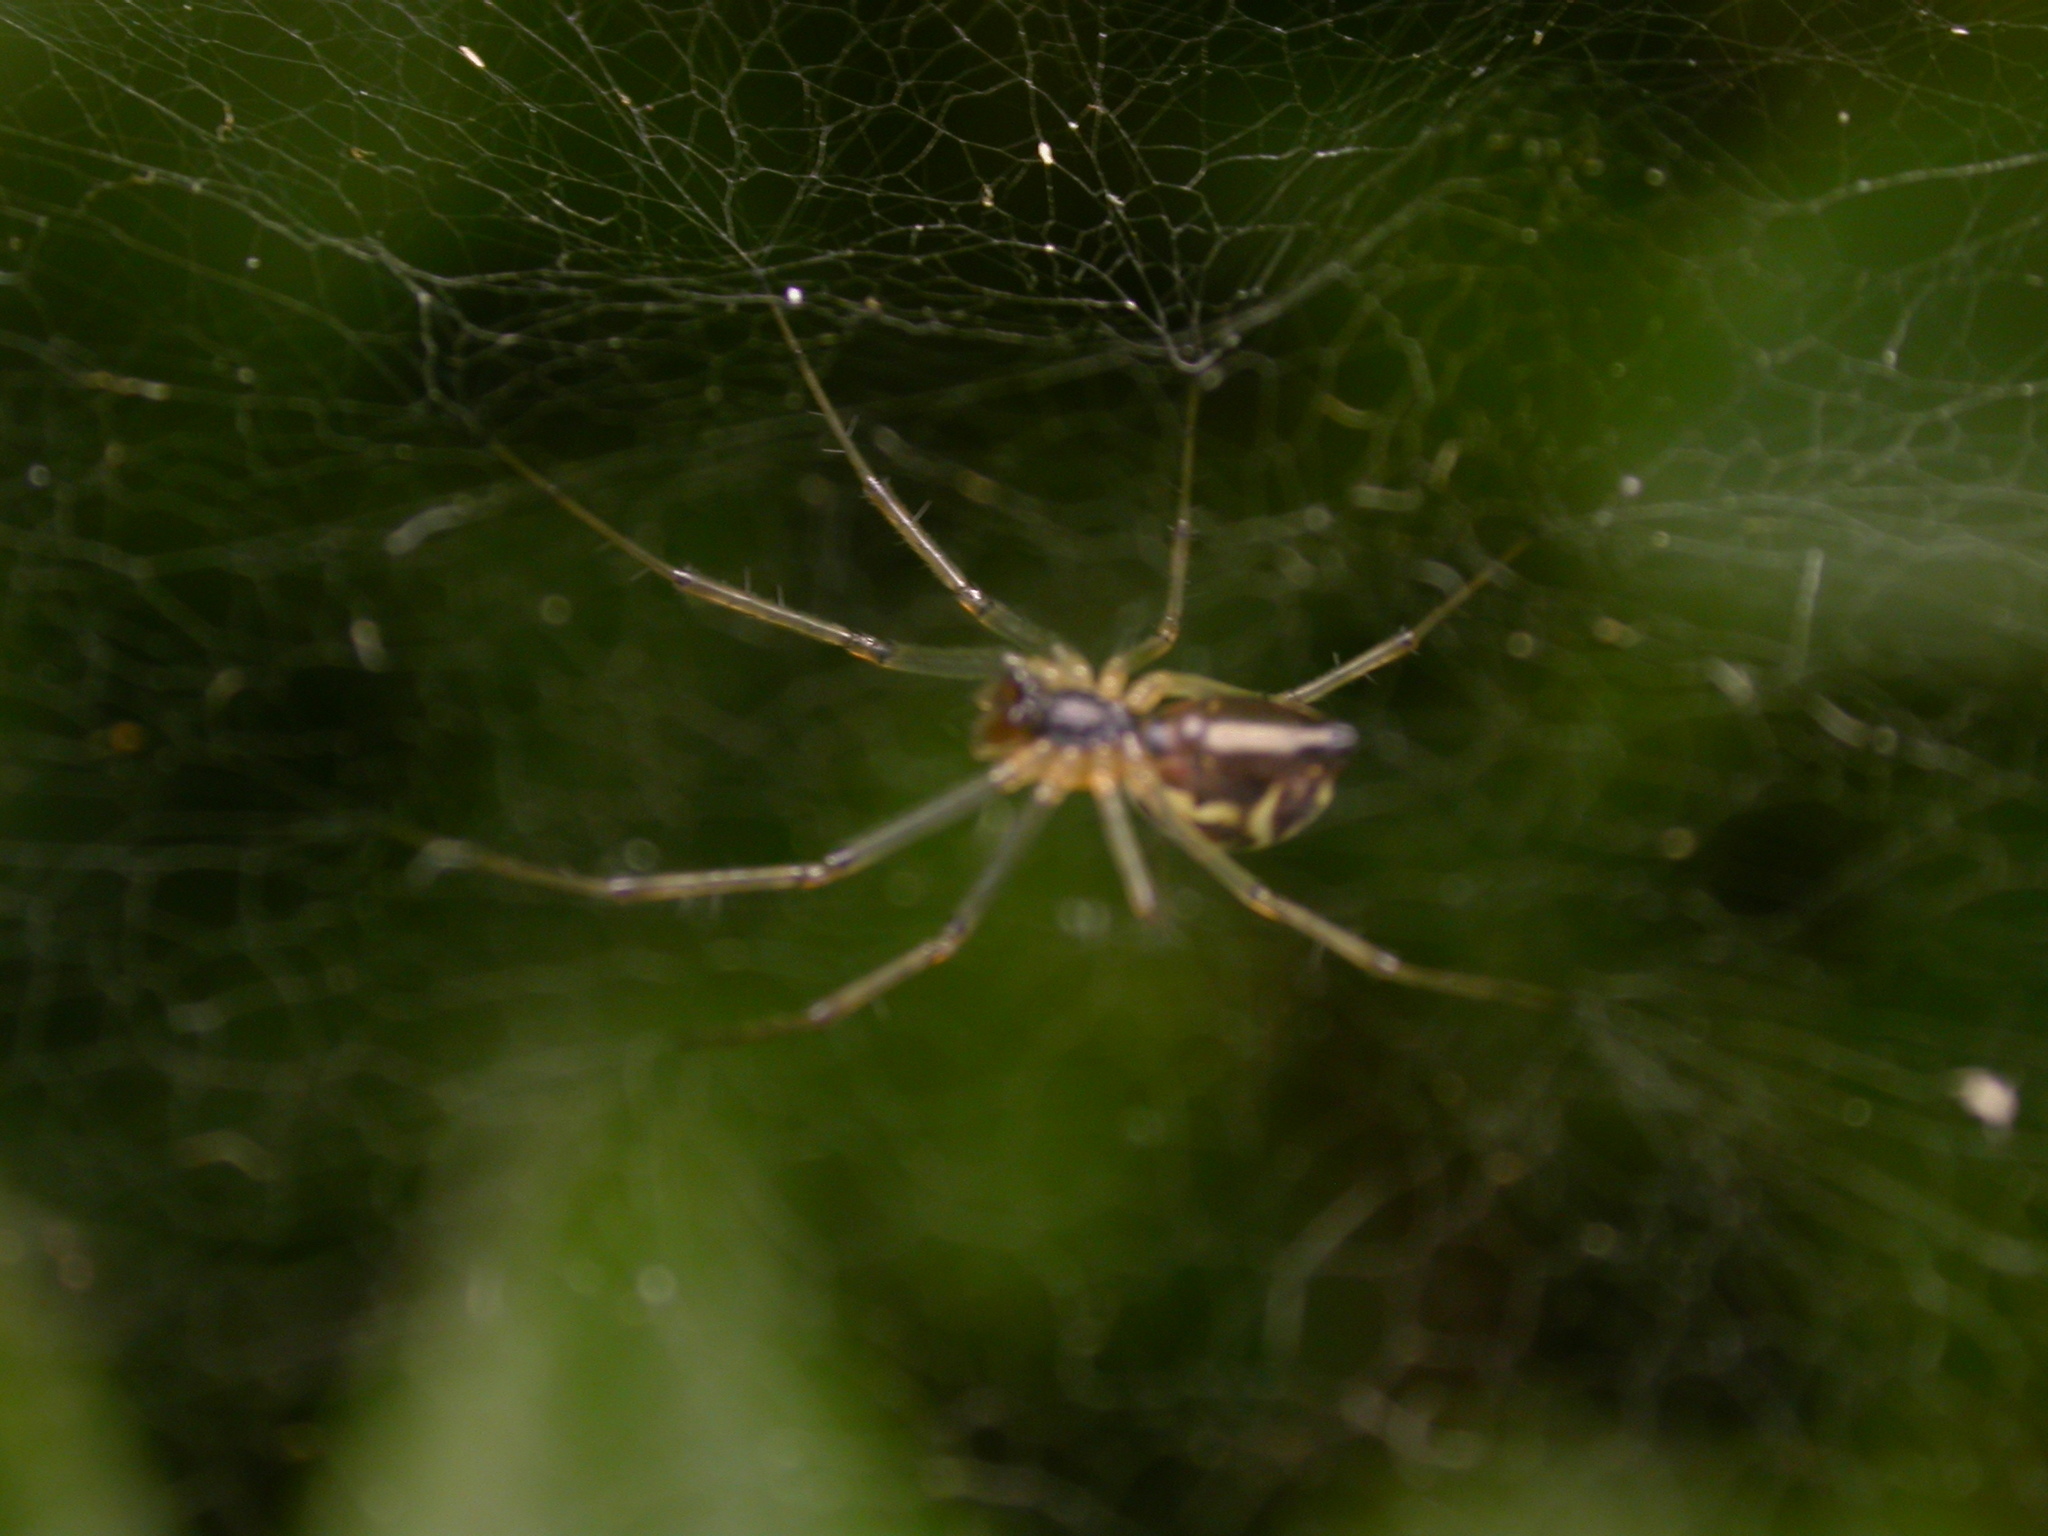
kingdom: Animalia
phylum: Arthropoda
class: Arachnida
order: Araneae
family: Linyphiidae
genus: Linyphia
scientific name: Linyphia triangularis
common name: Money spider
